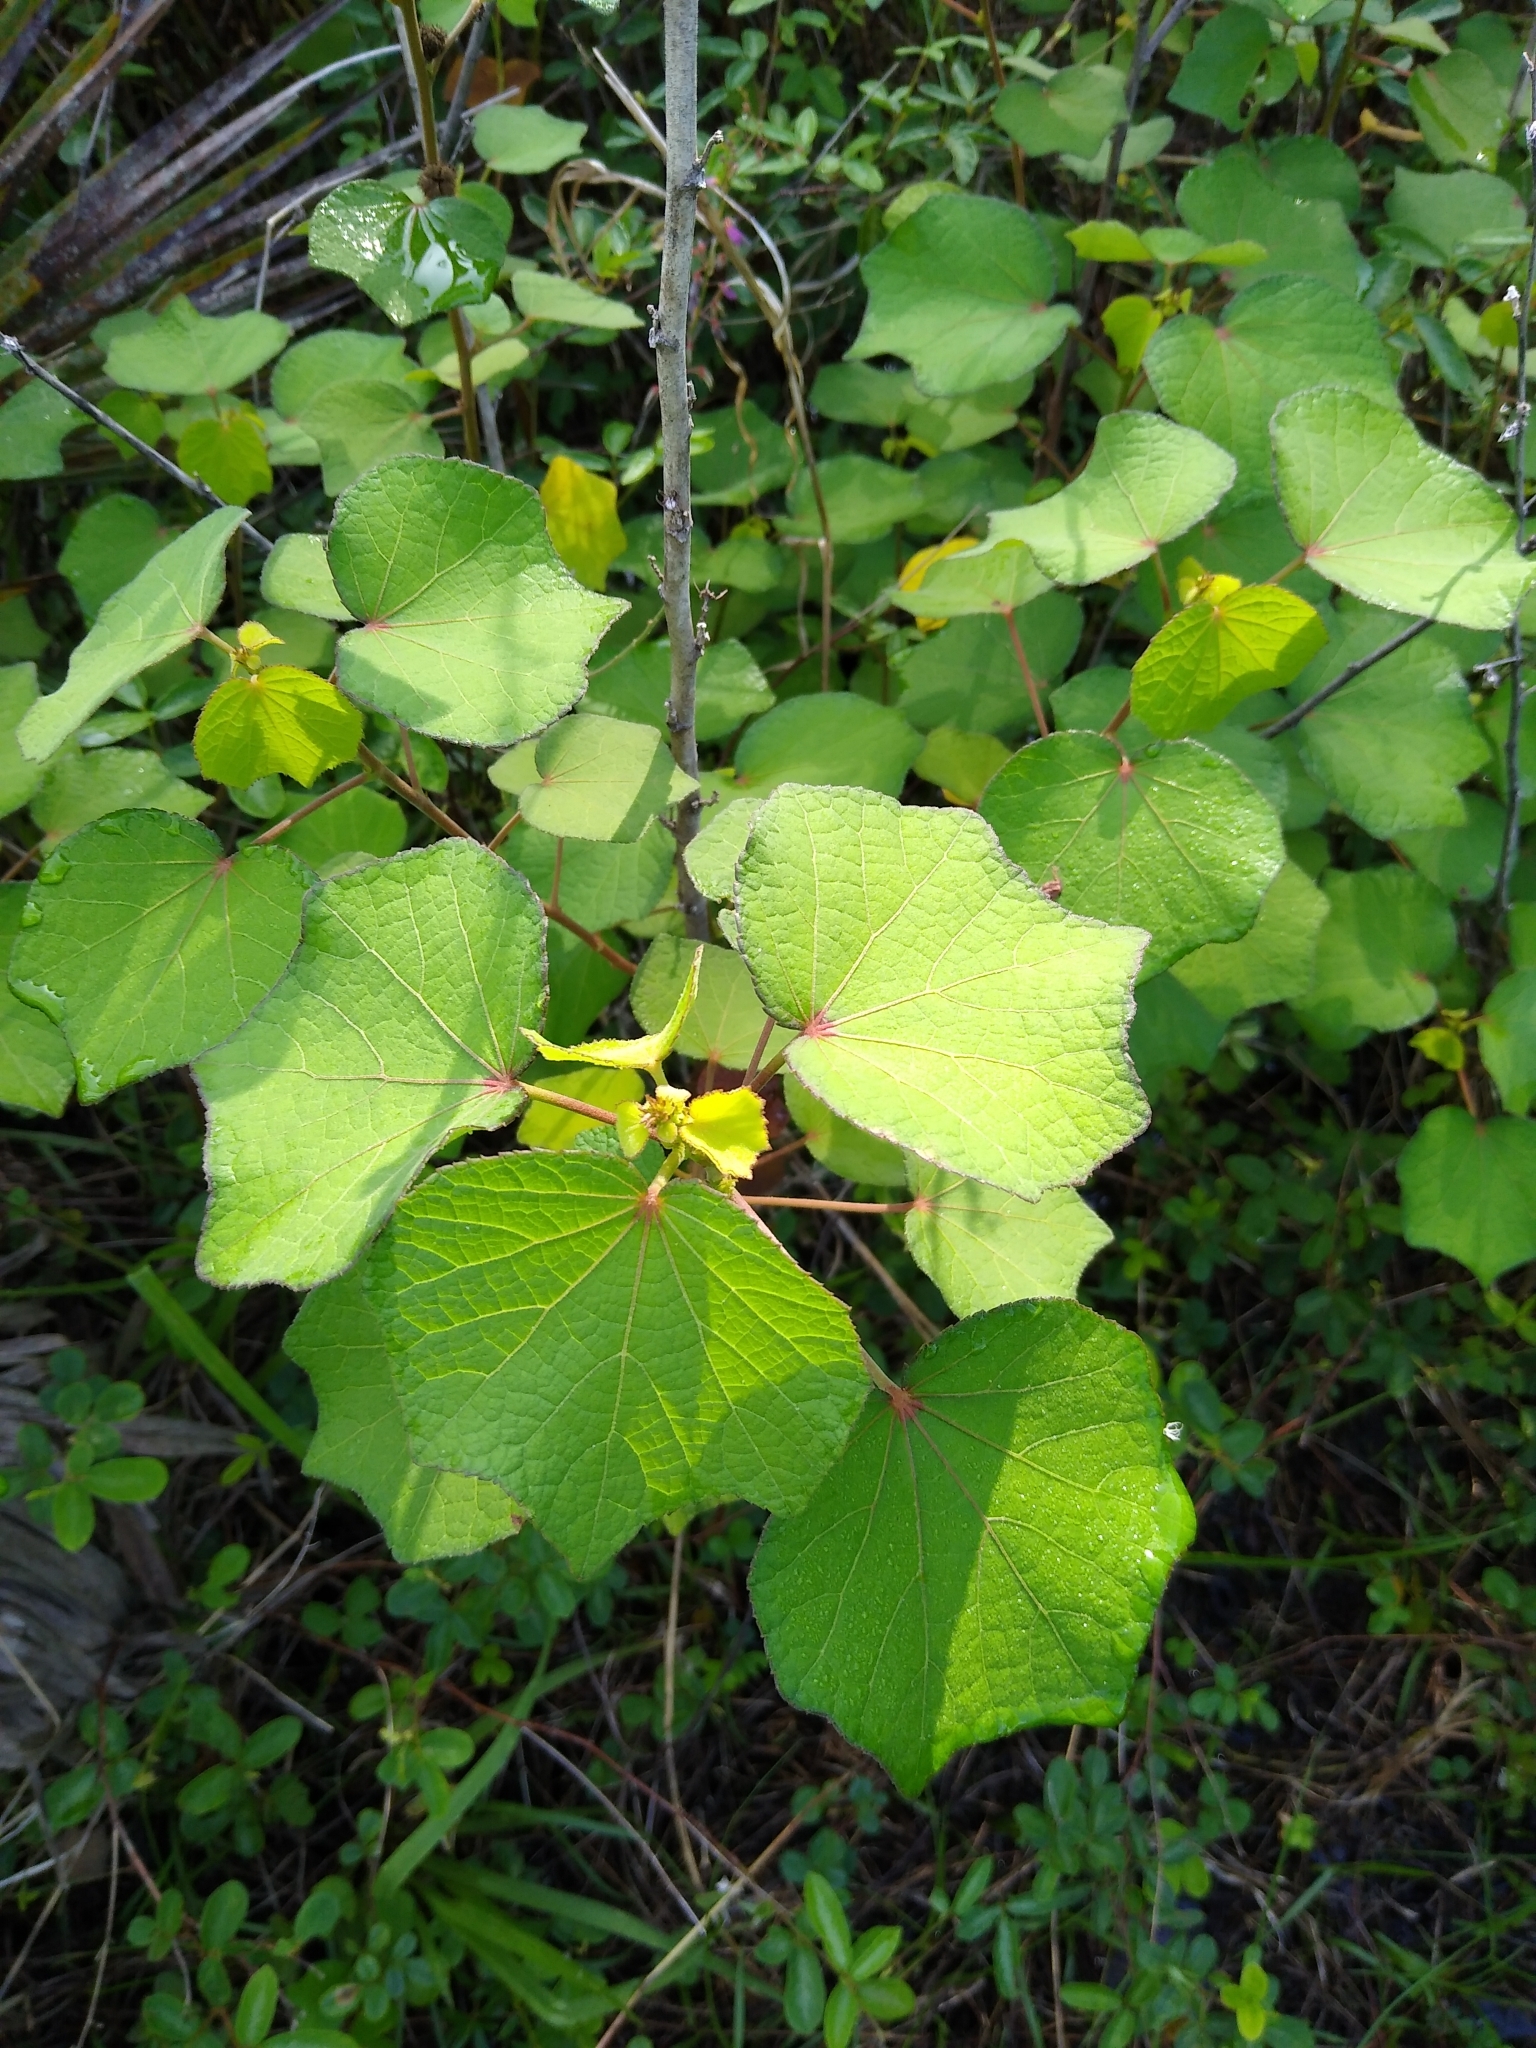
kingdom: Plantae
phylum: Tracheophyta
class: Magnoliopsida
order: Malvales
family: Malvaceae
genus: Urena
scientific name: Urena lobata
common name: Caesarweed
